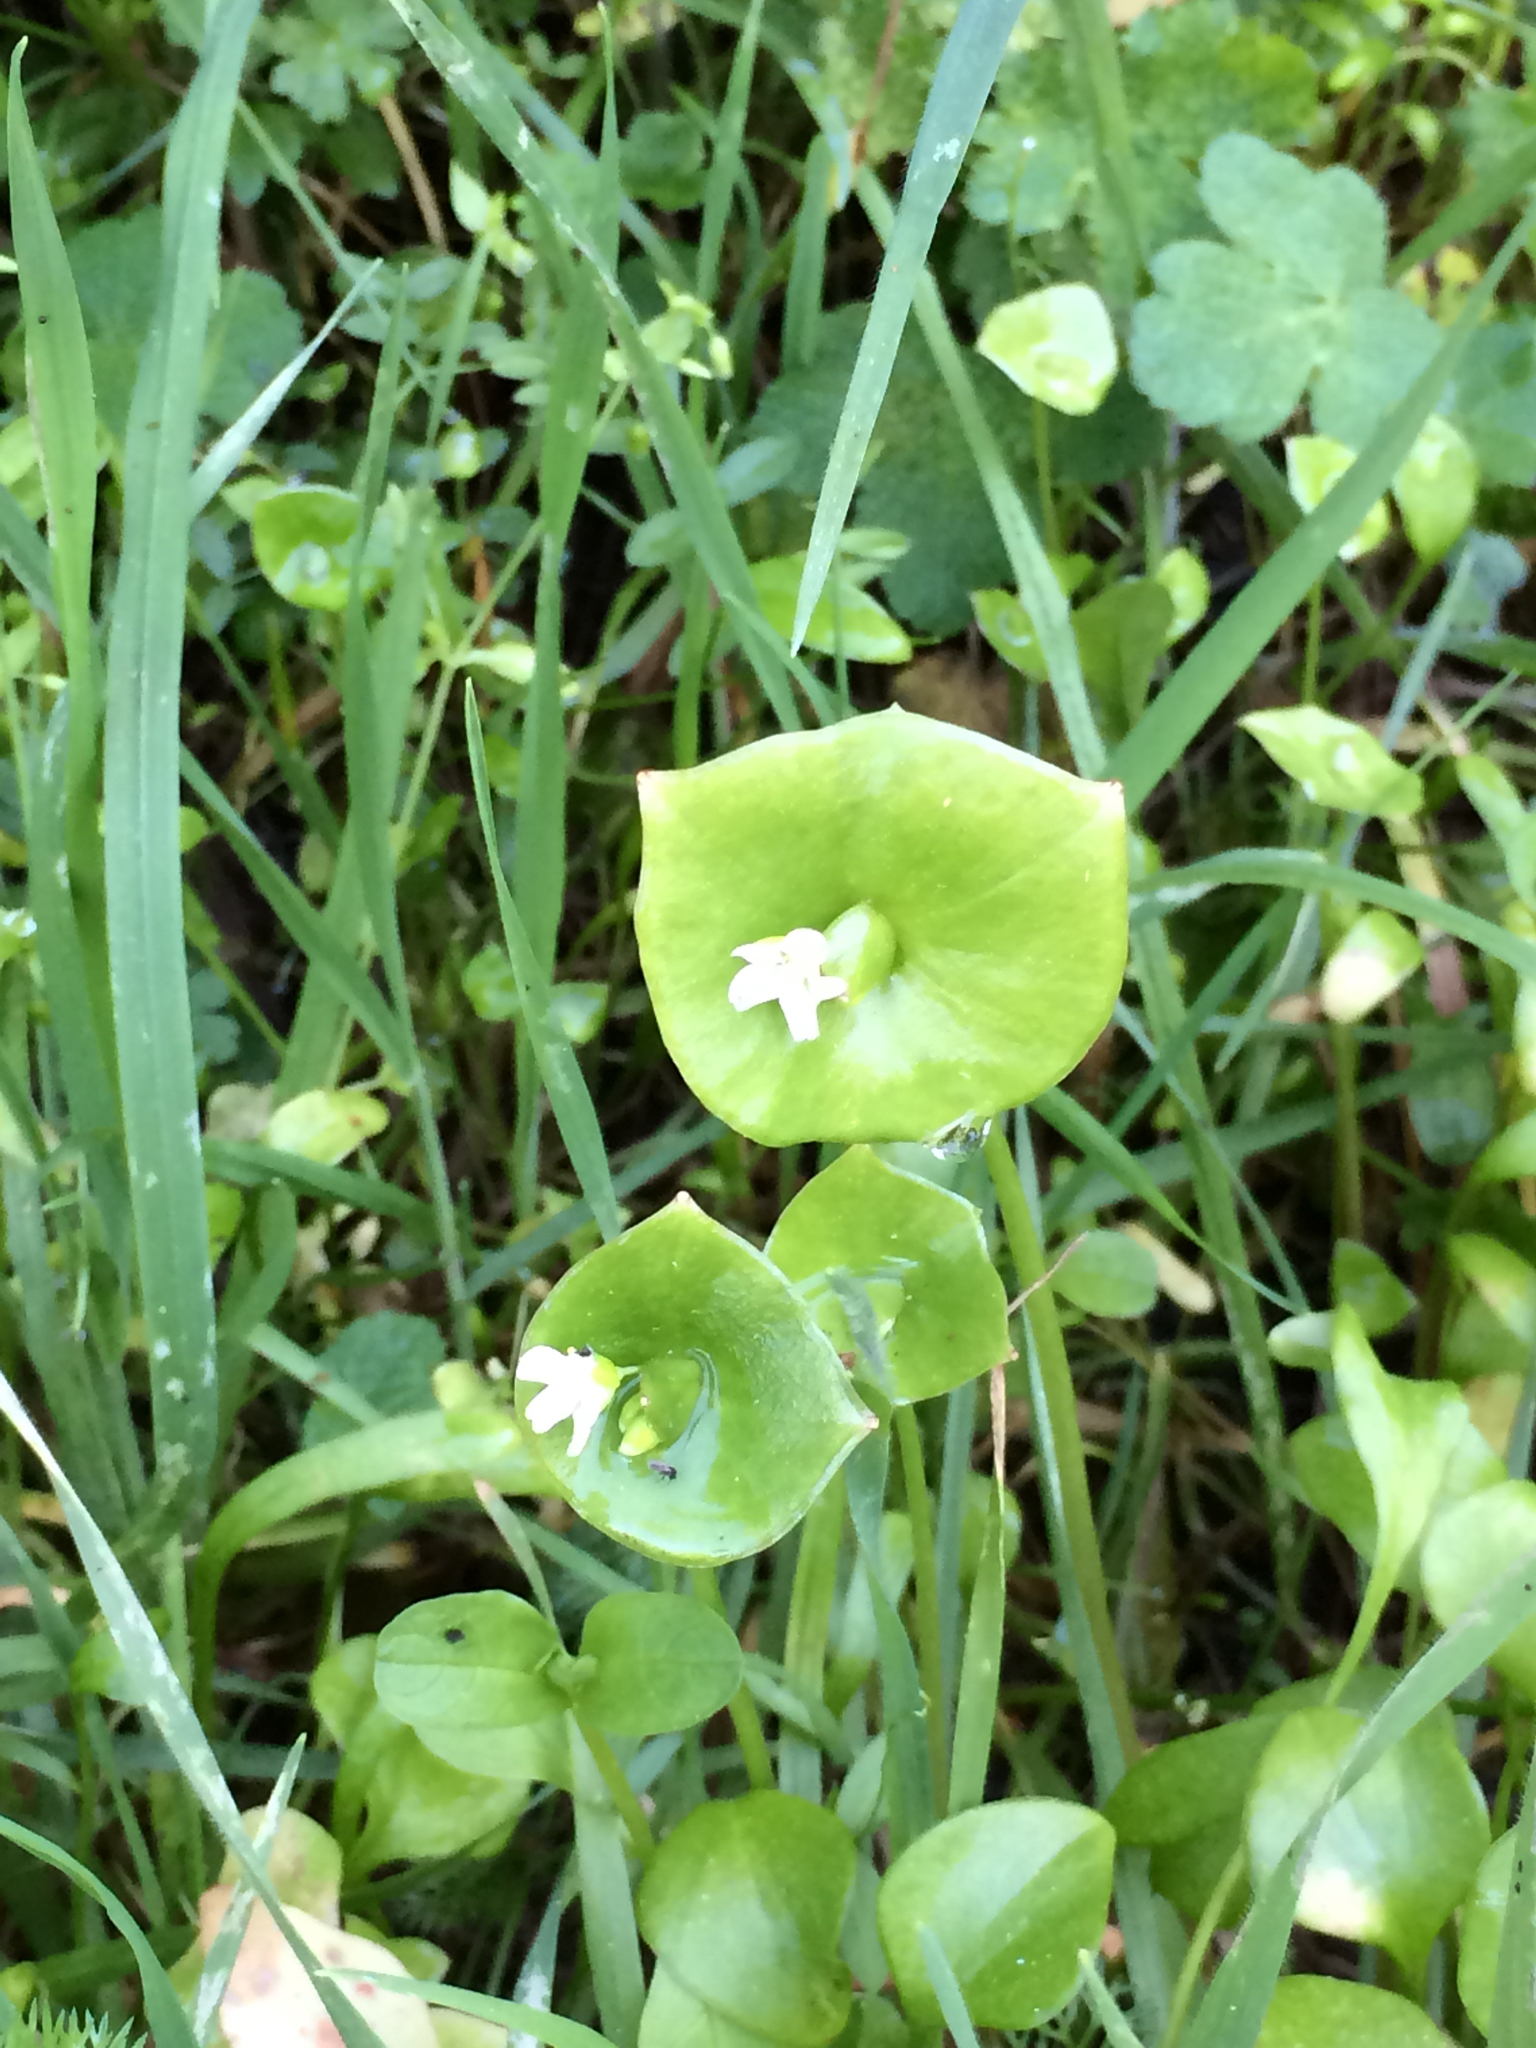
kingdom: Plantae
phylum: Tracheophyta
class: Magnoliopsida
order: Caryophyllales
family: Montiaceae
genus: Claytonia
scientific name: Claytonia perfoliata
